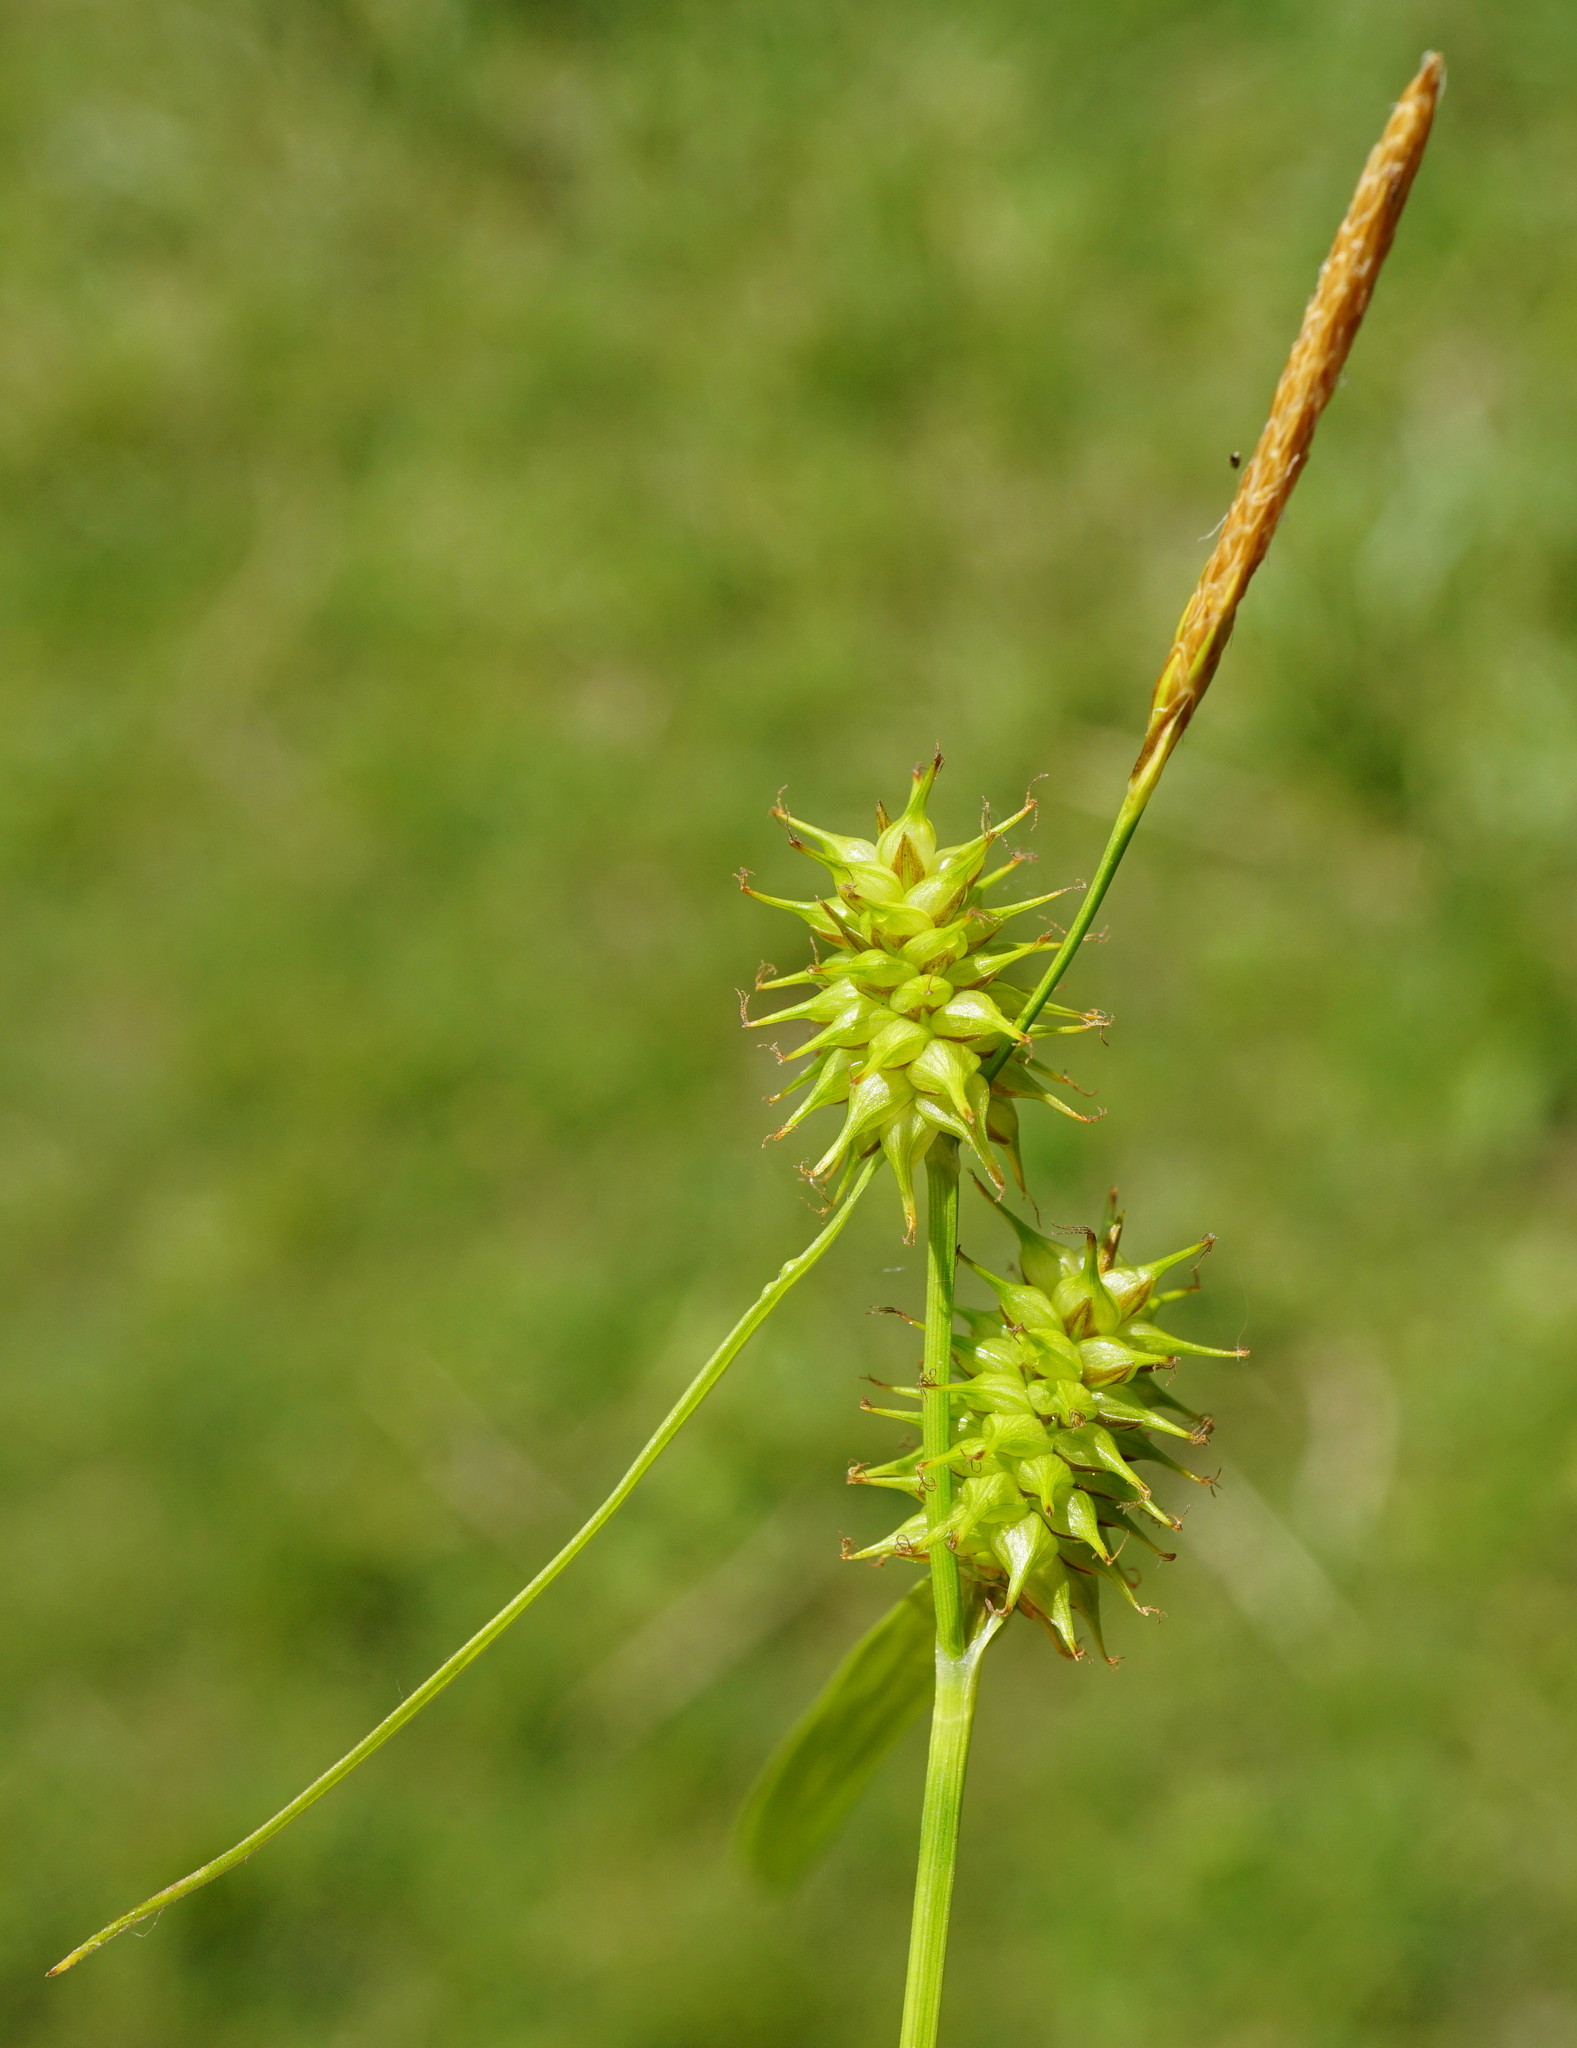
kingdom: Plantae
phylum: Tracheophyta
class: Liliopsida
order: Poales
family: Cyperaceae
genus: Carex
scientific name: Carex flava
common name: Large yellow-sedge
